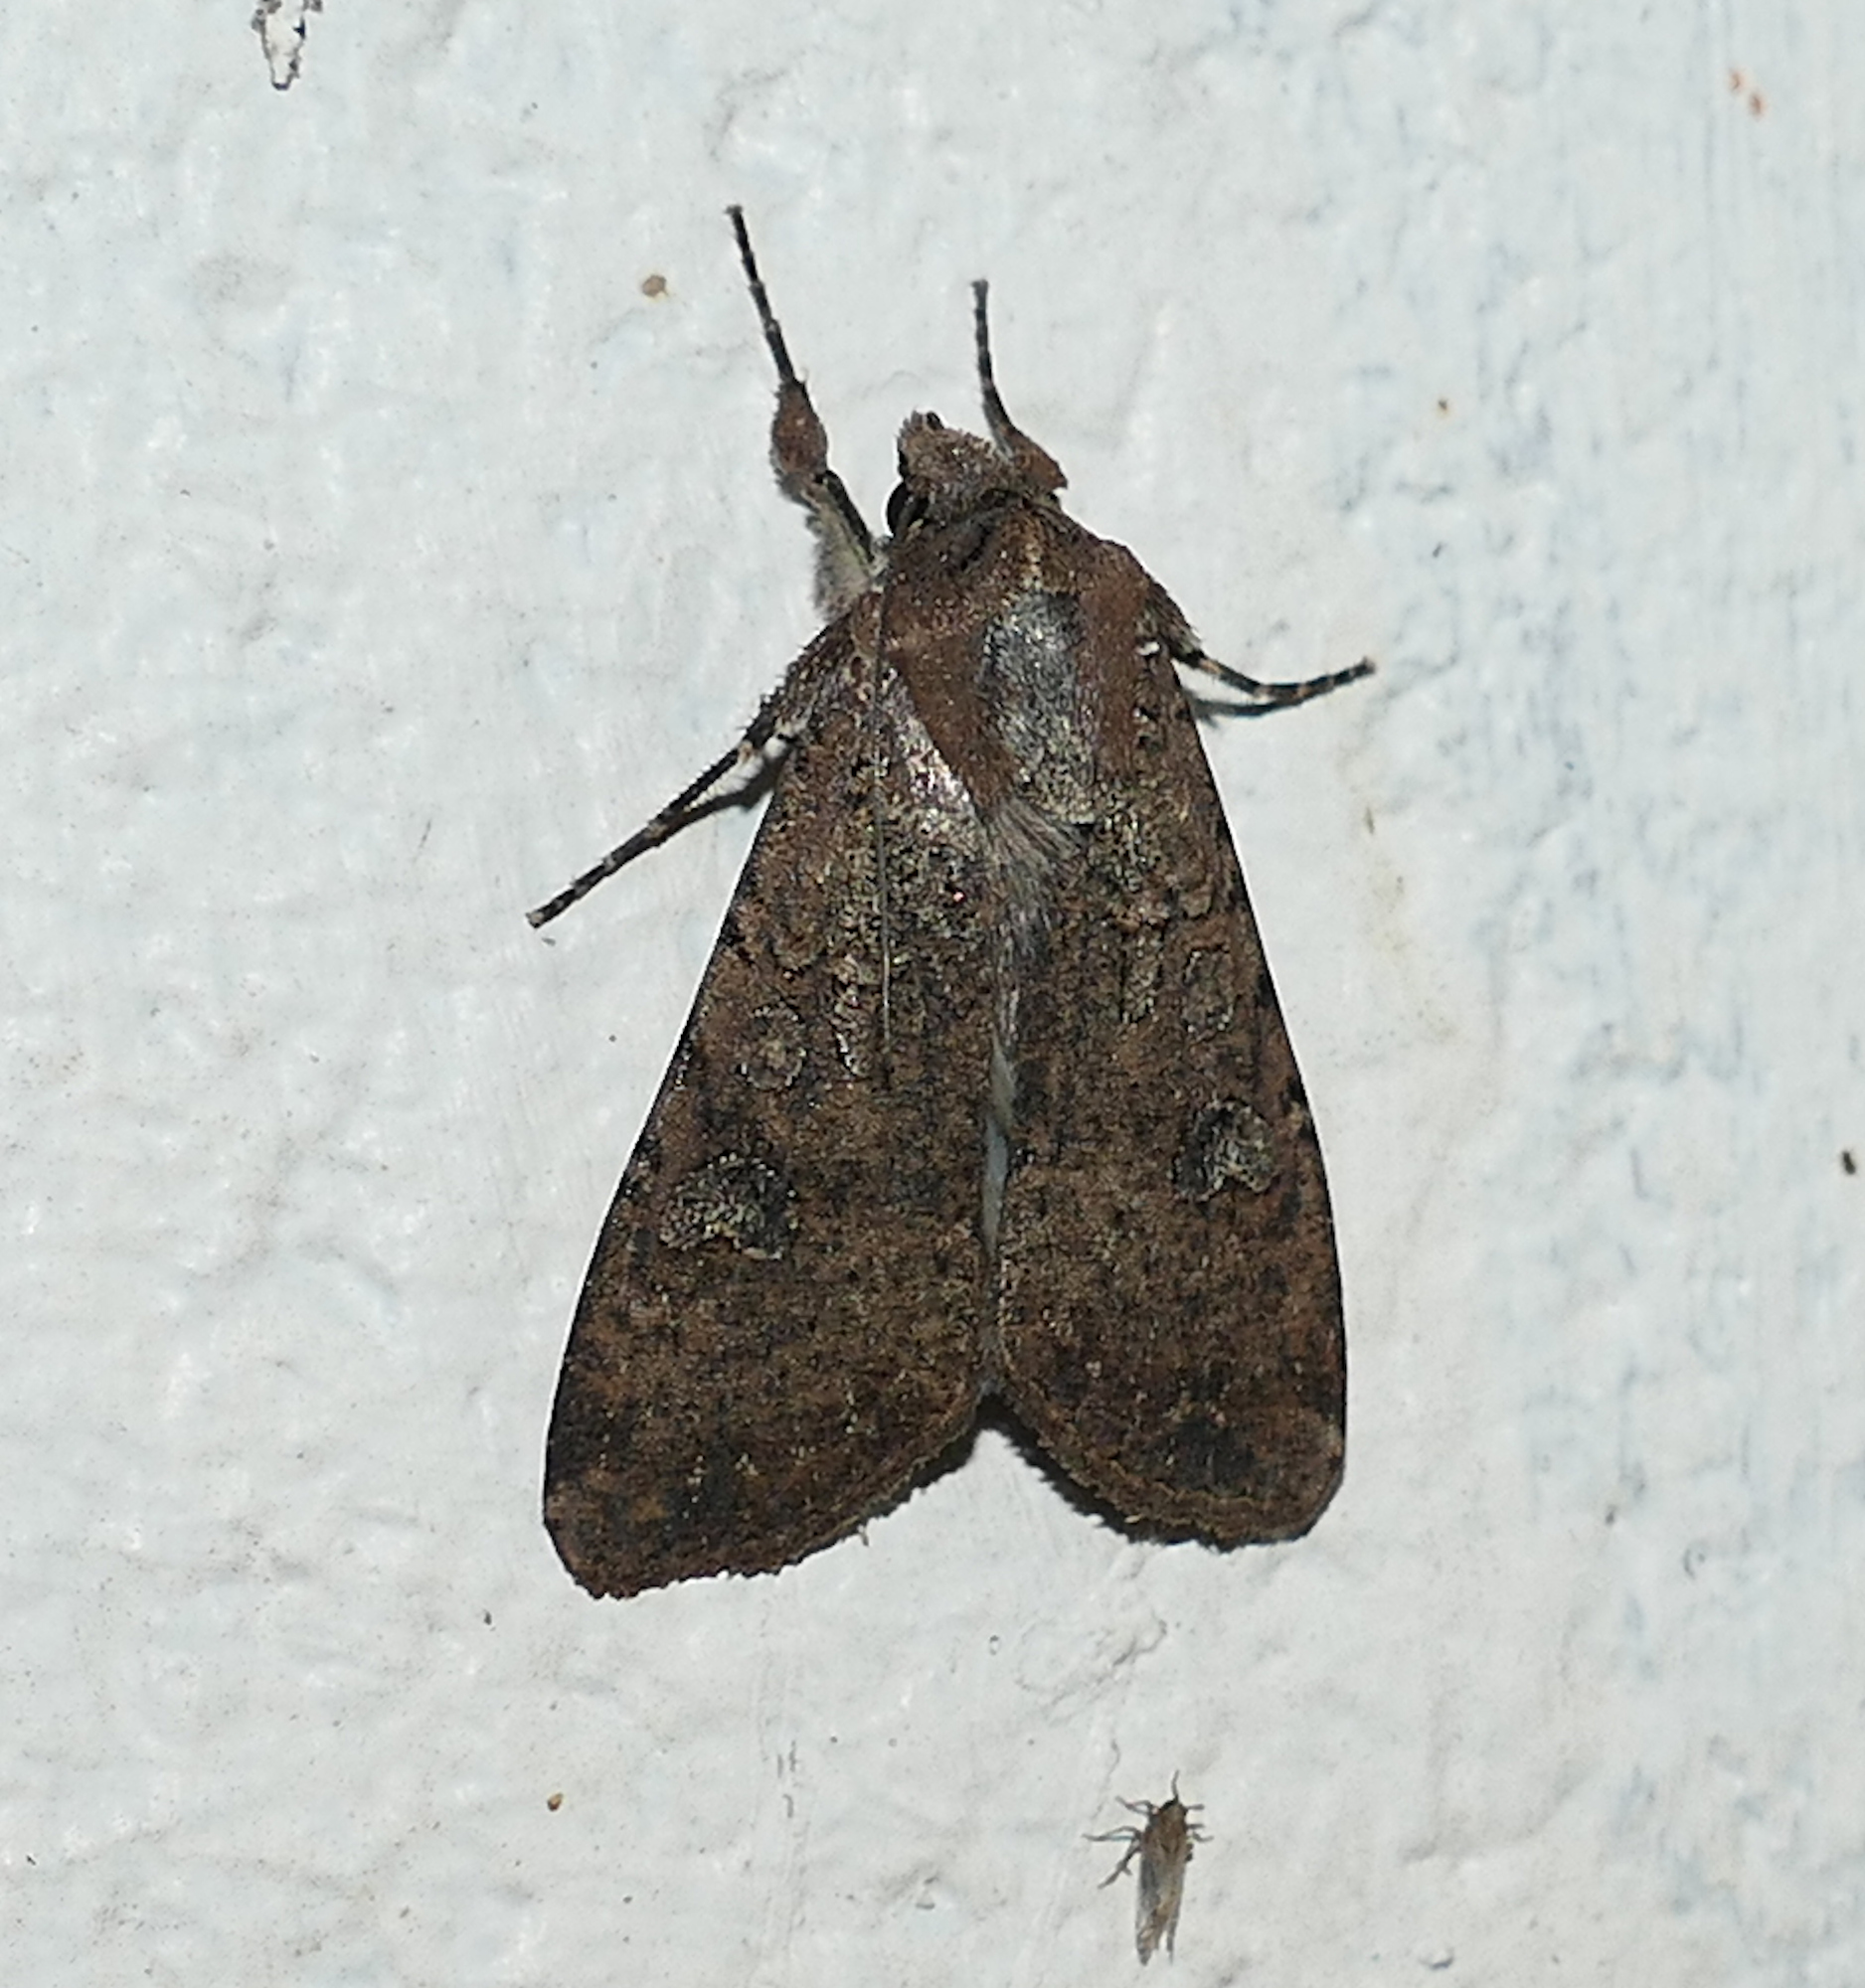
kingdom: Animalia
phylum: Arthropoda
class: Insecta
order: Lepidoptera
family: Noctuidae
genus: Peridroma
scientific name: Peridroma saucia
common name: Pearly underwing
